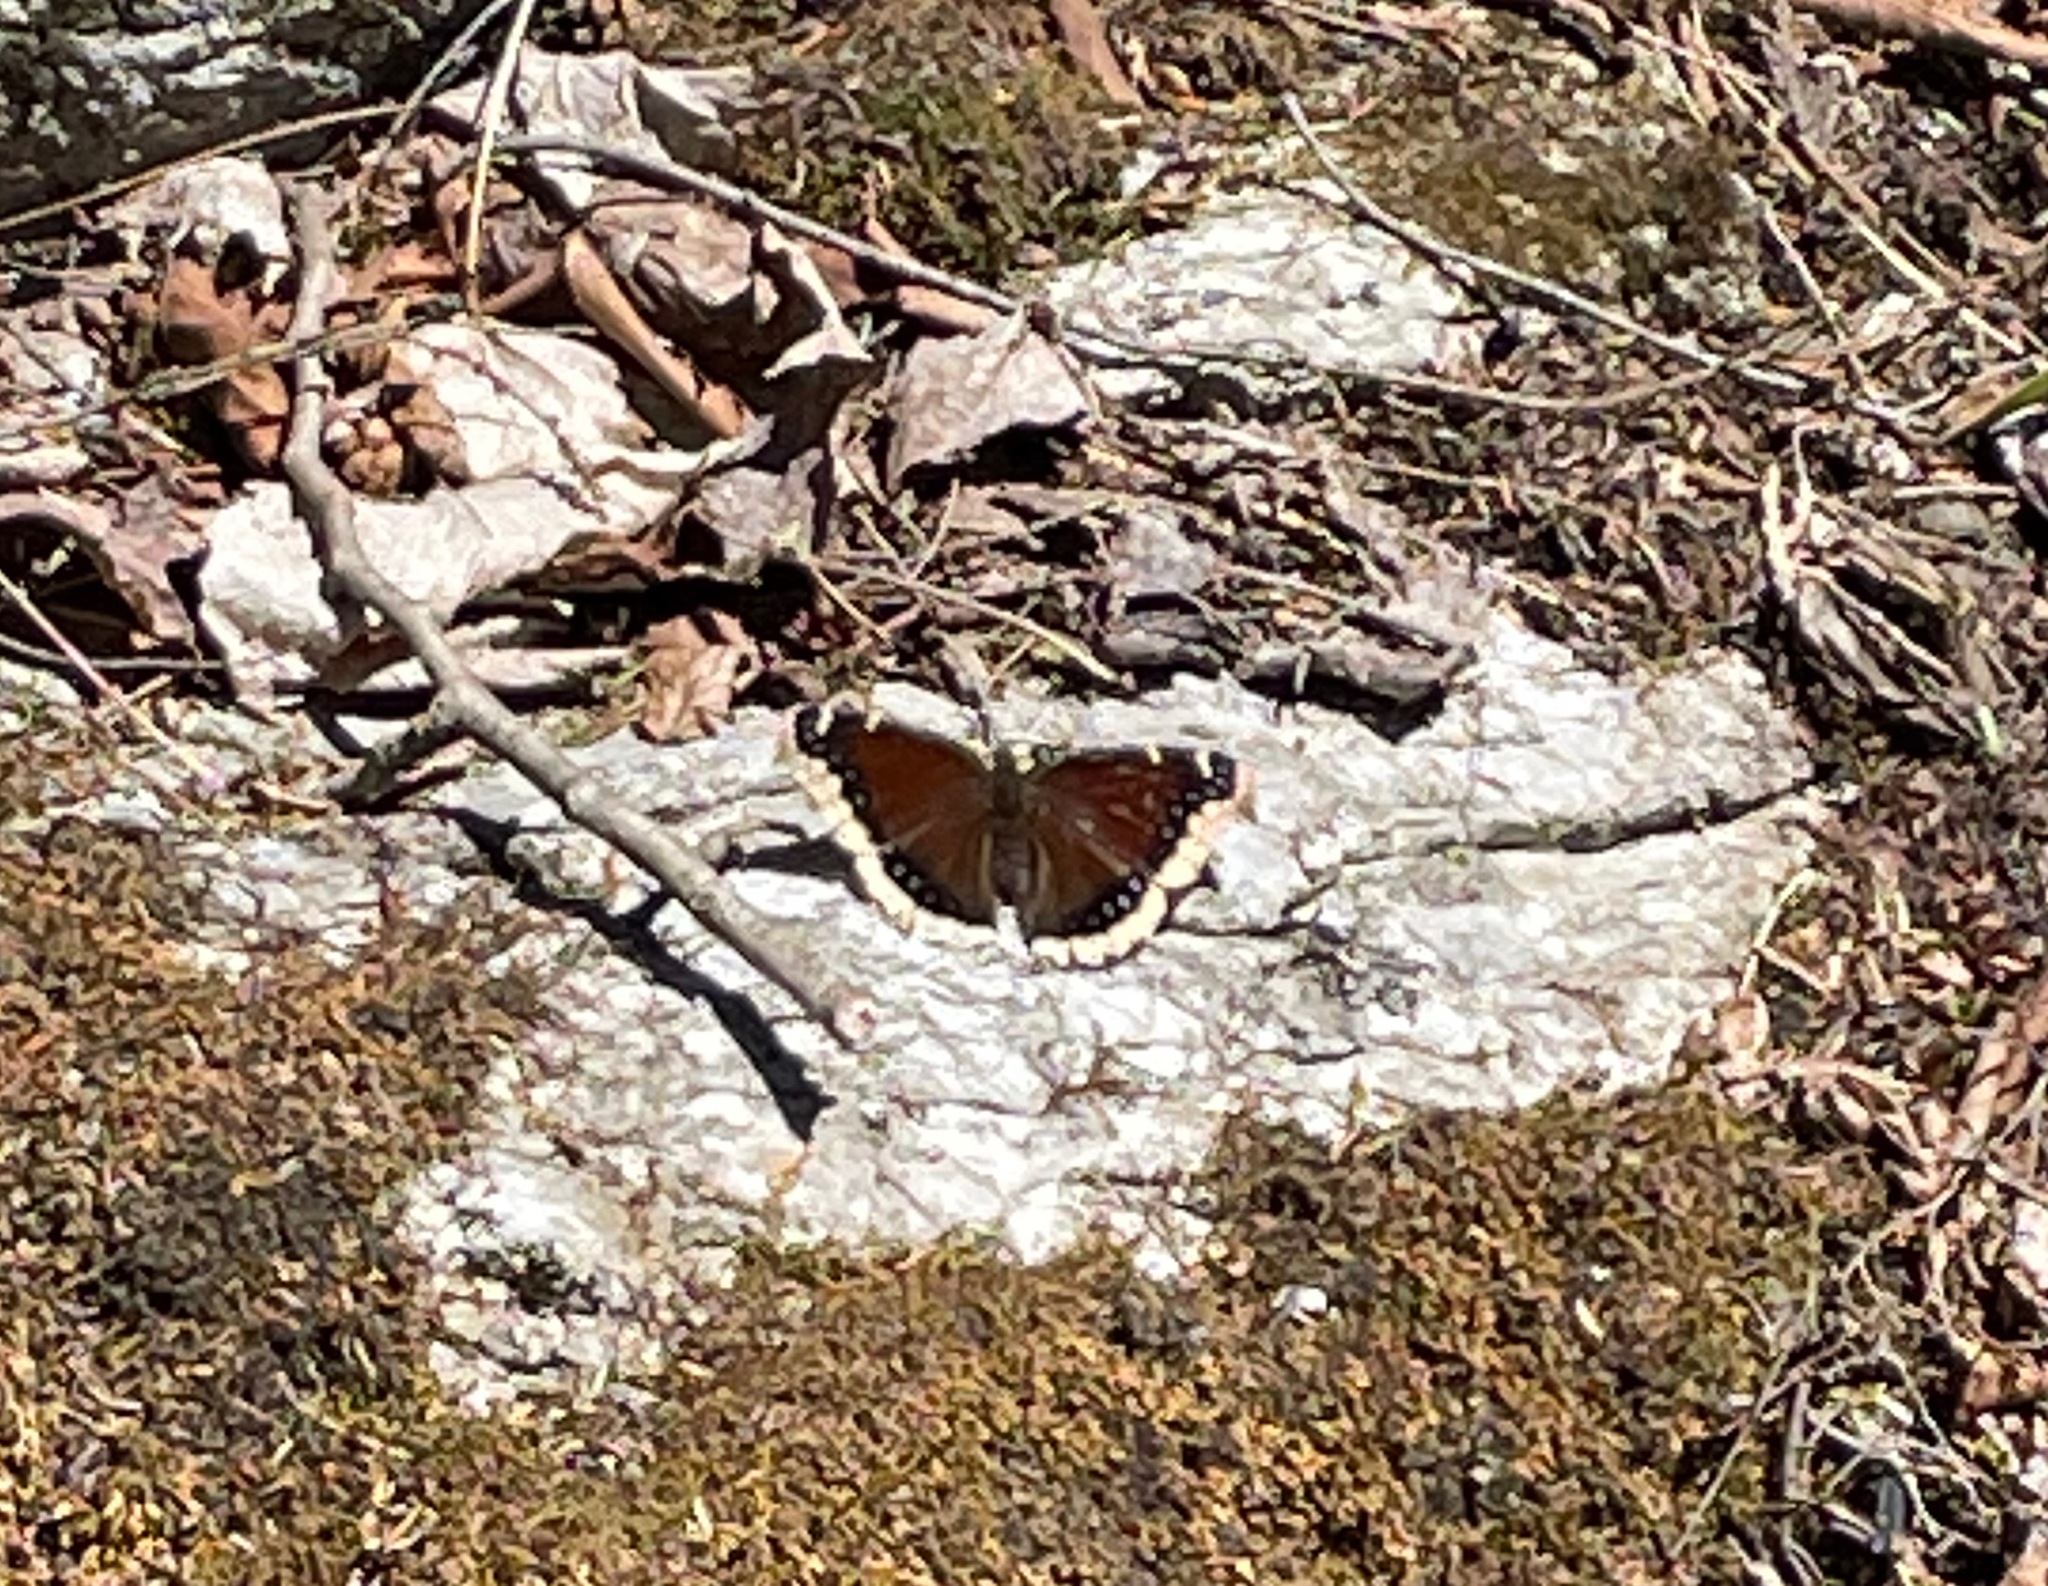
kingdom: Animalia
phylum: Arthropoda
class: Insecta
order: Lepidoptera
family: Nymphalidae
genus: Nymphalis
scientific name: Nymphalis antiopa
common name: Camberwell beauty
